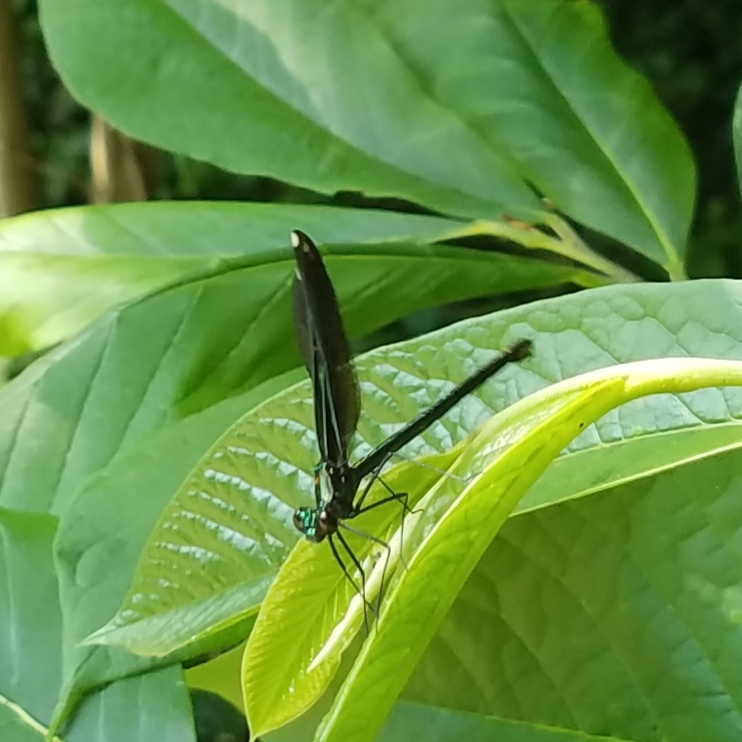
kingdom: Animalia
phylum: Arthropoda
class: Insecta
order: Odonata
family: Calopterygidae
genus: Calopteryx
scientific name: Calopteryx maculata
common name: Ebony jewelwing
